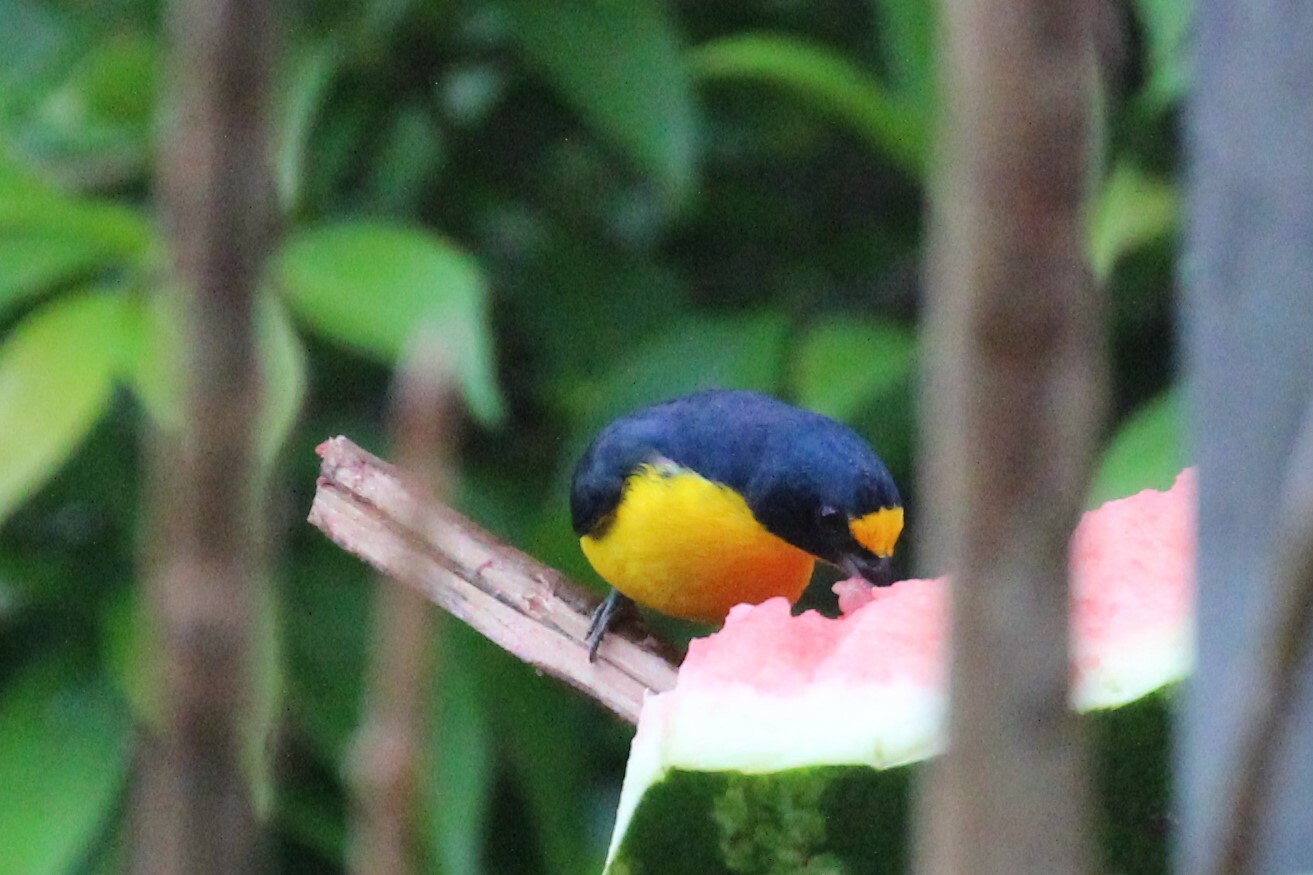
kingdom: Animalia
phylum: Chordata
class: Aves
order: Passeriformes
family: Fringillidae
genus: Euphonia
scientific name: Euphonia hirundinacea
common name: Yellow-throated euphonia
